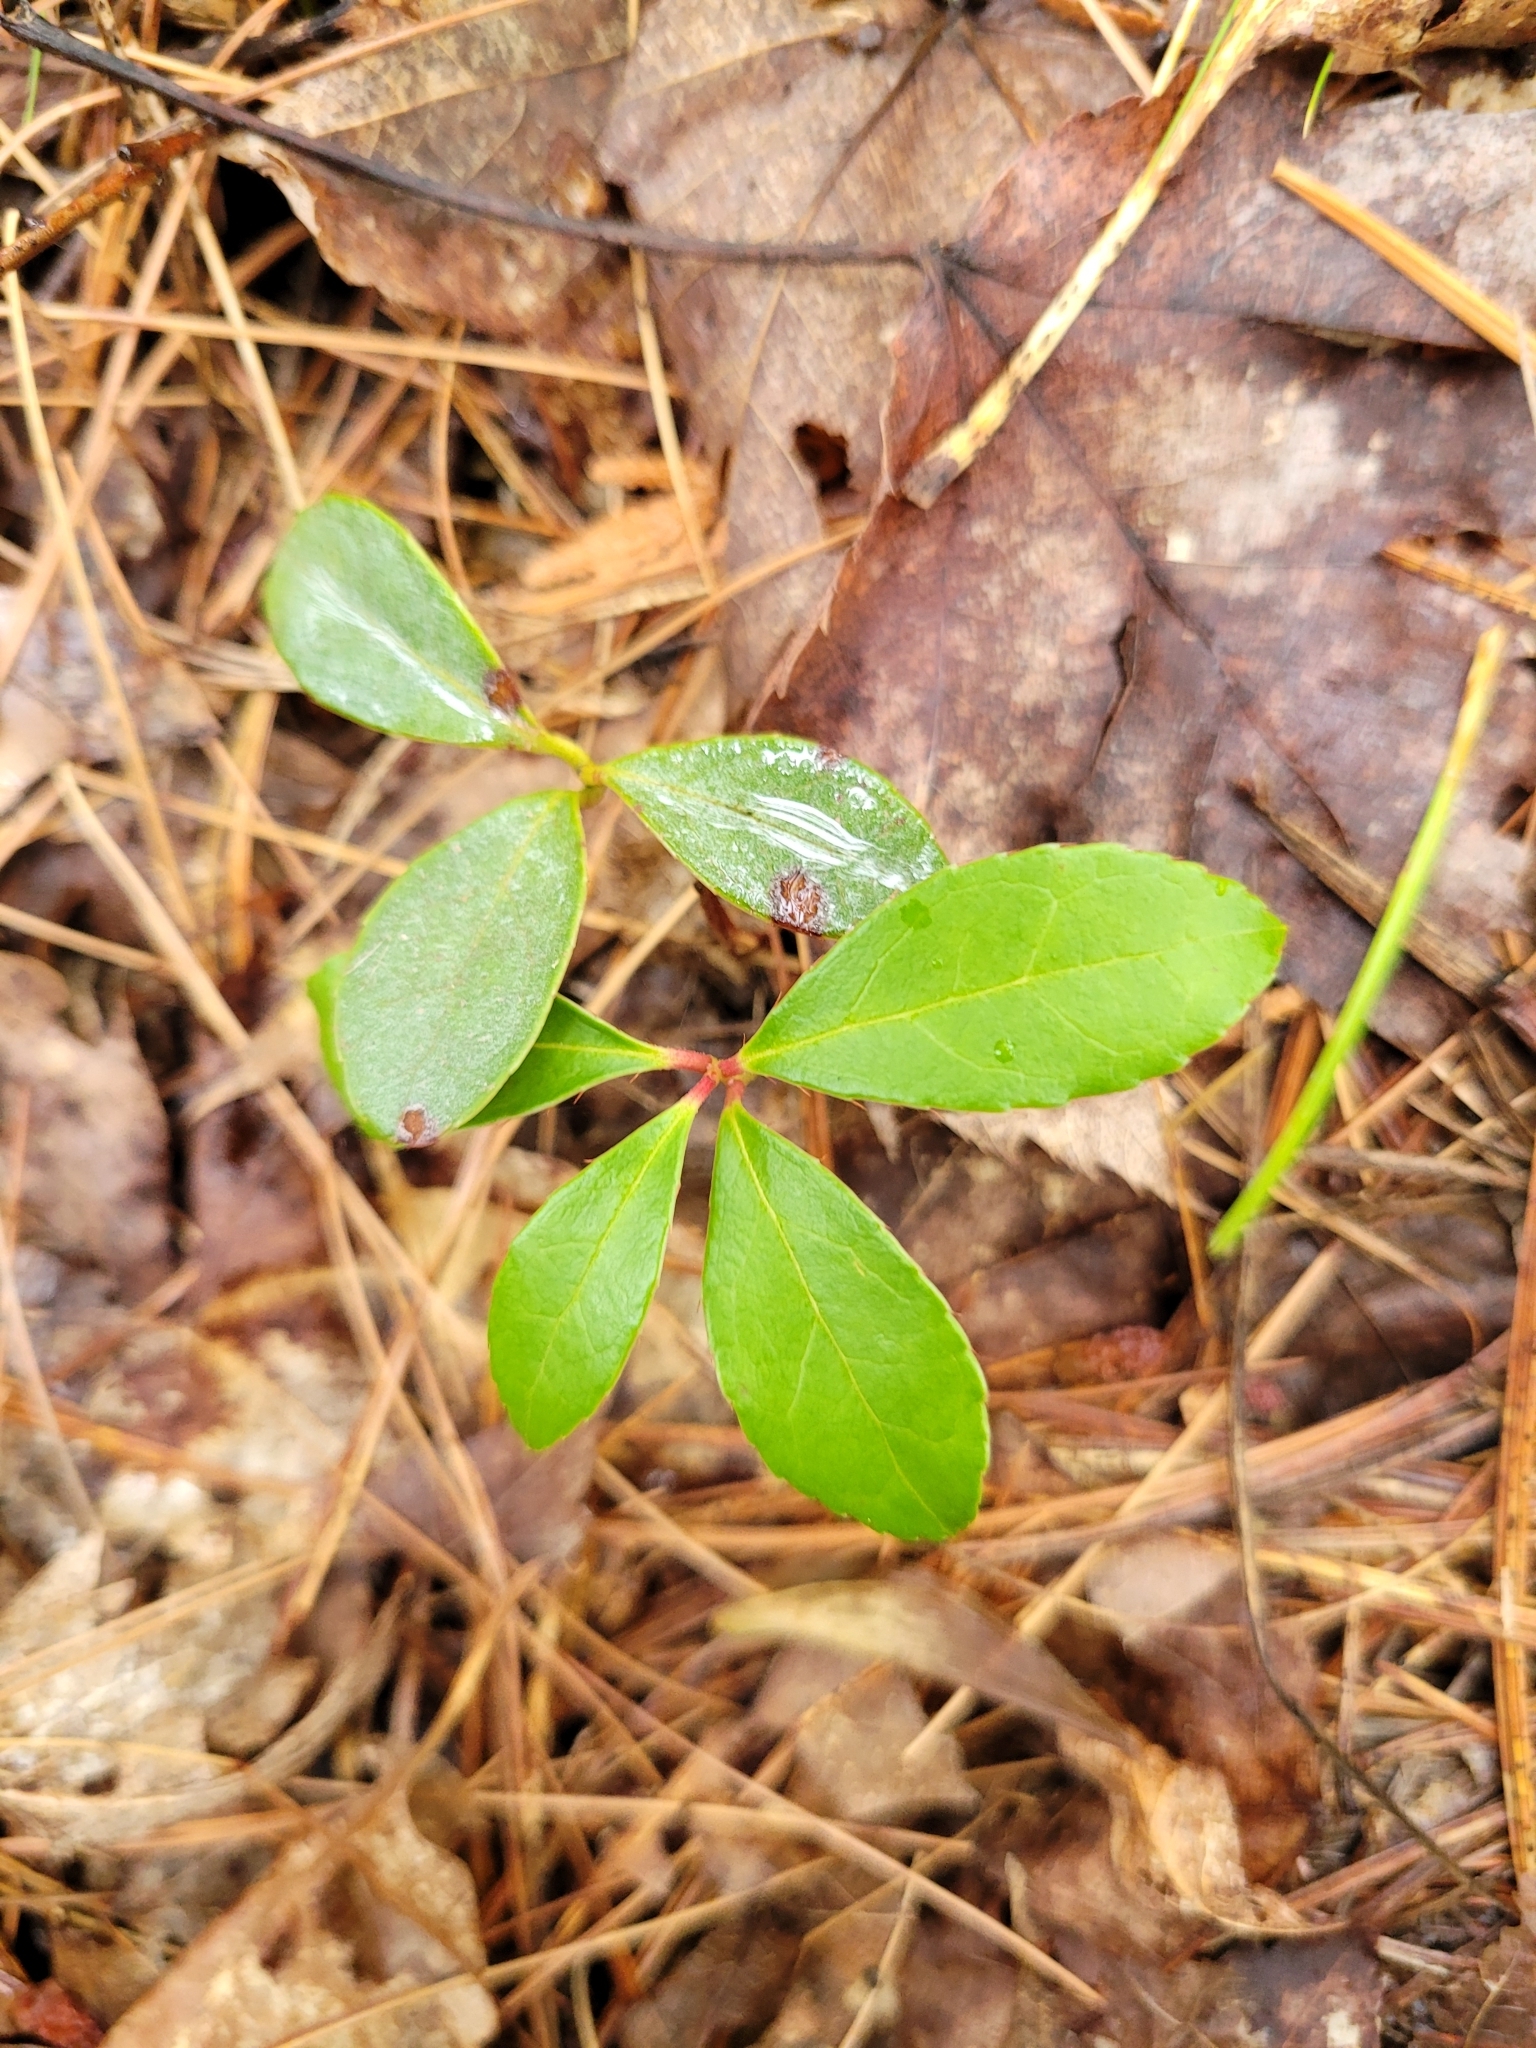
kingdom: Plantae
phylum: Tracheophyta
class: Magnoliopsida
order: Ericales
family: Ericaceae
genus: Gaultheria
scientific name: Gaultheria procumbens
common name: Checkerberry
